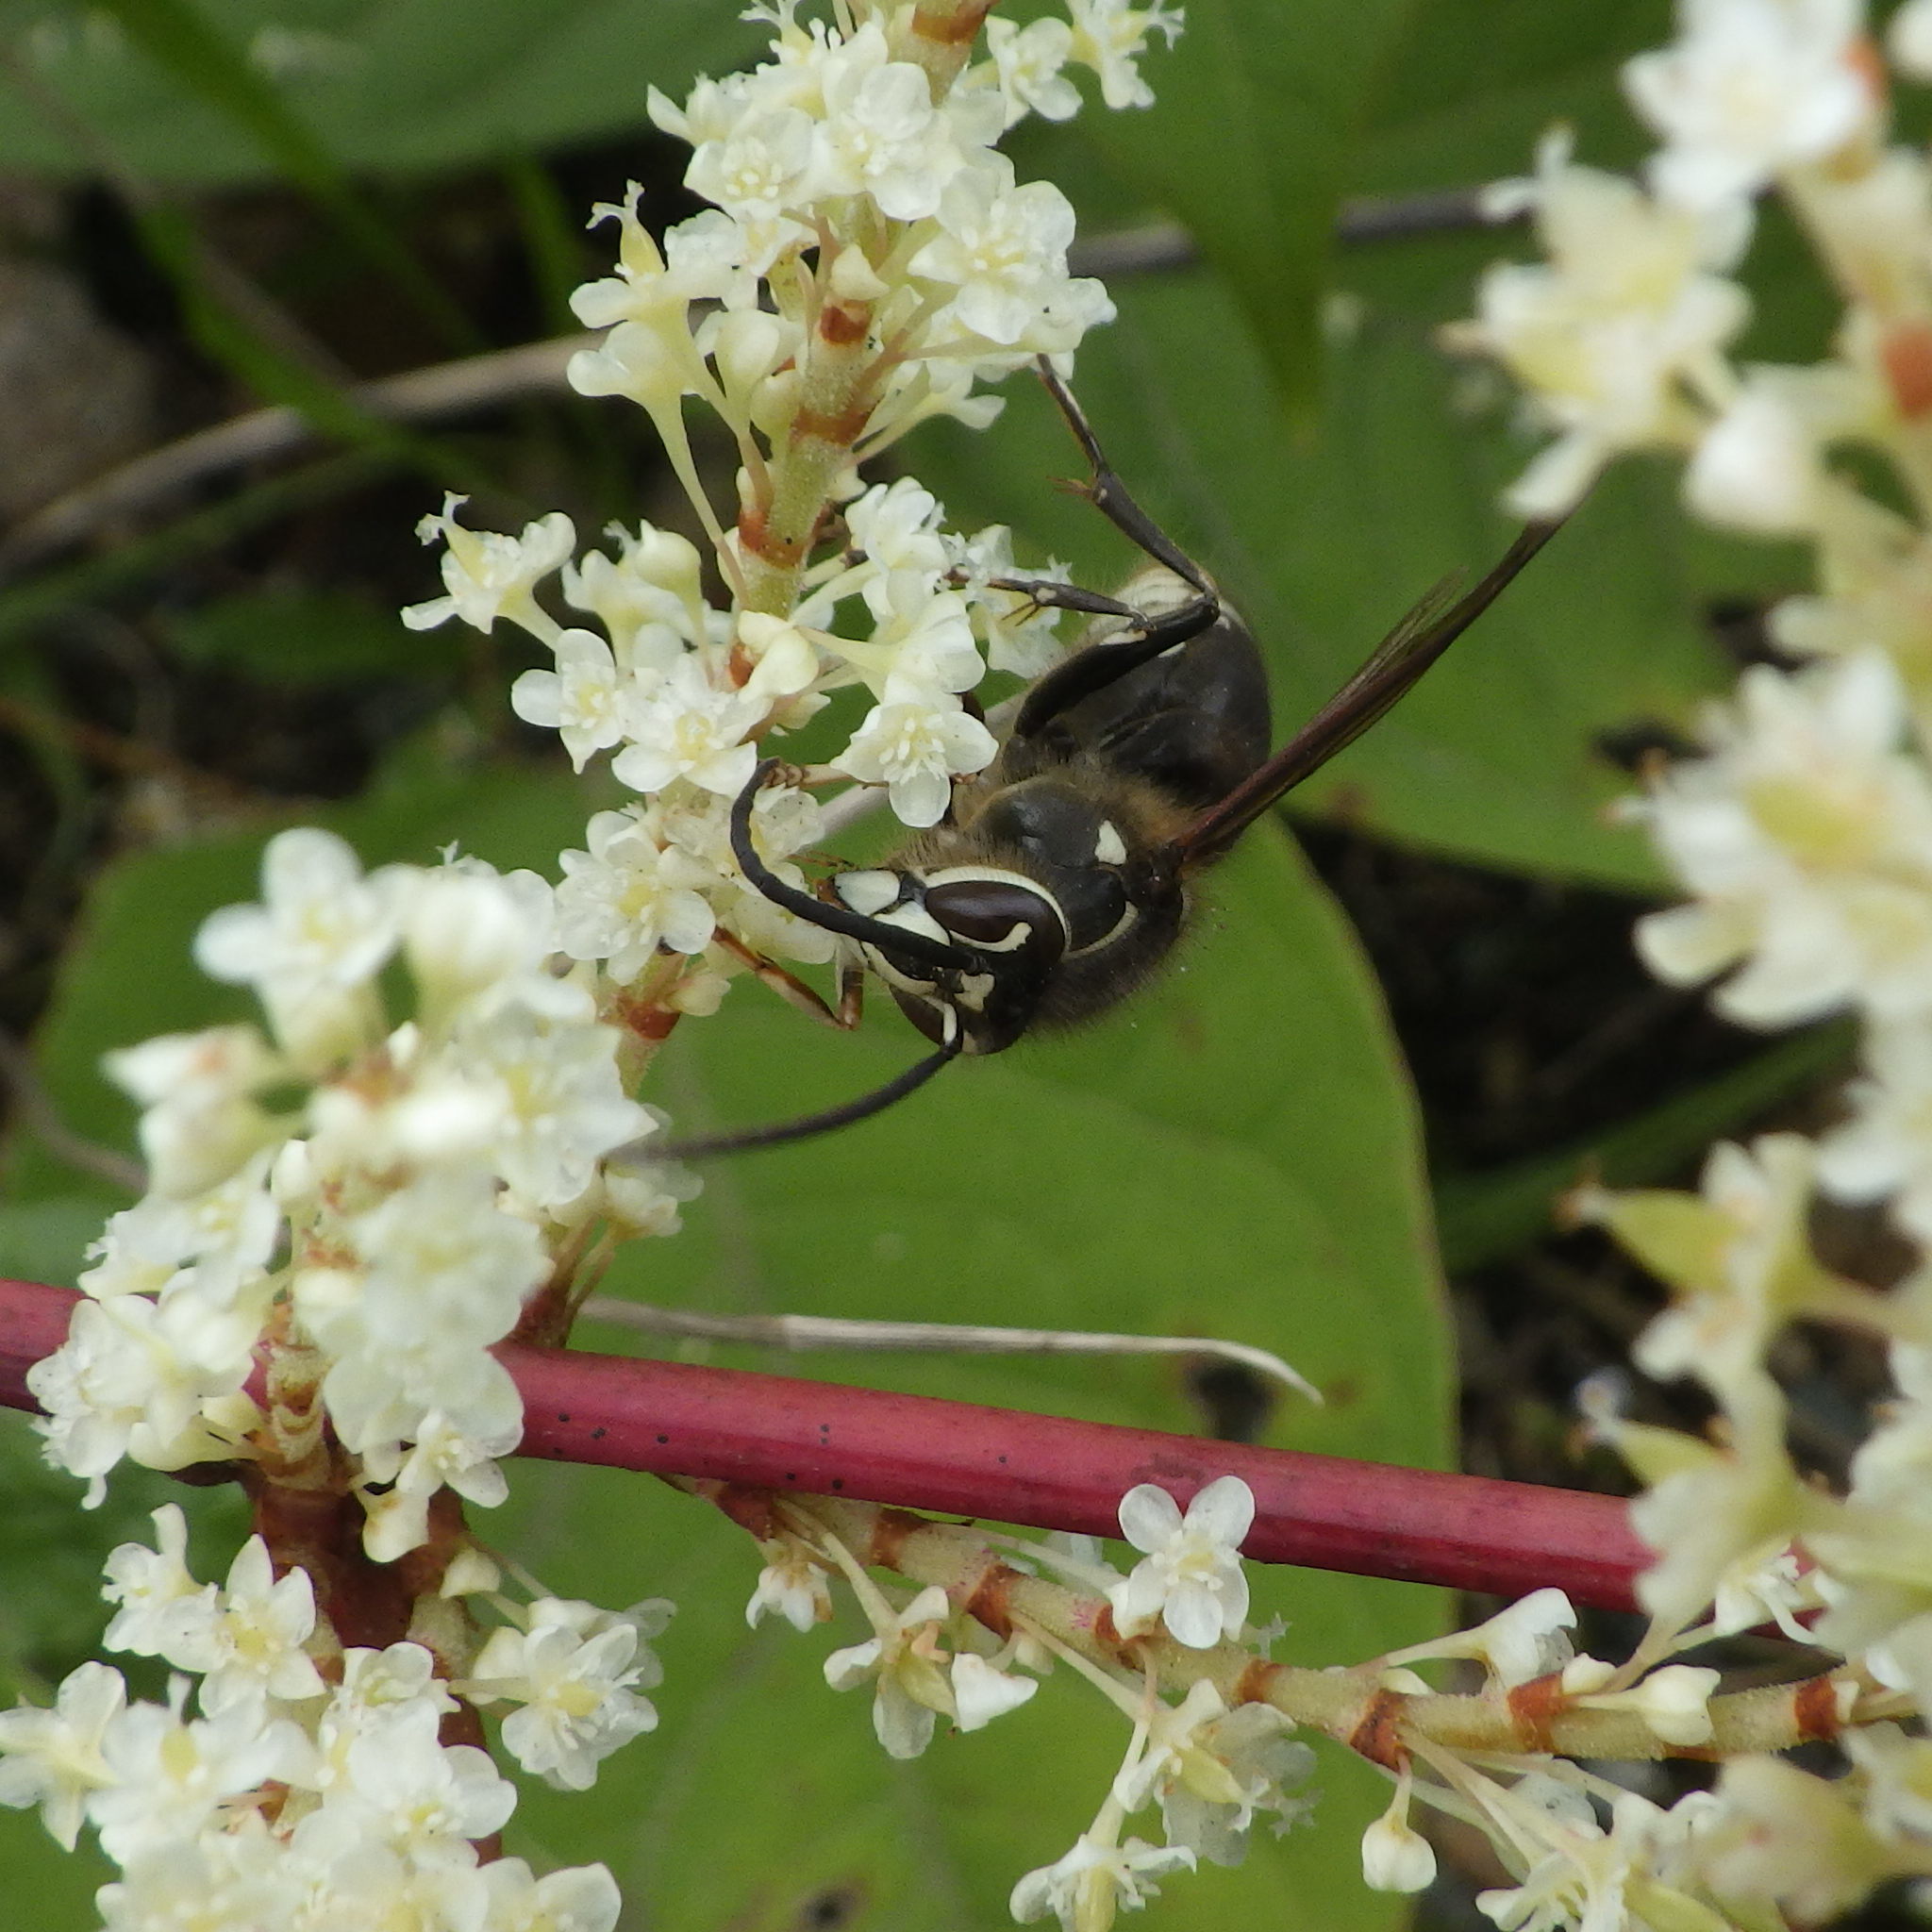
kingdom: Animalia
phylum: Arthropoda
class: Insecta
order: Hymenoptera
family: Vespidae
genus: Dolichovespula
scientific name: Dolichovespula maculata
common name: Bald-faced hornet
